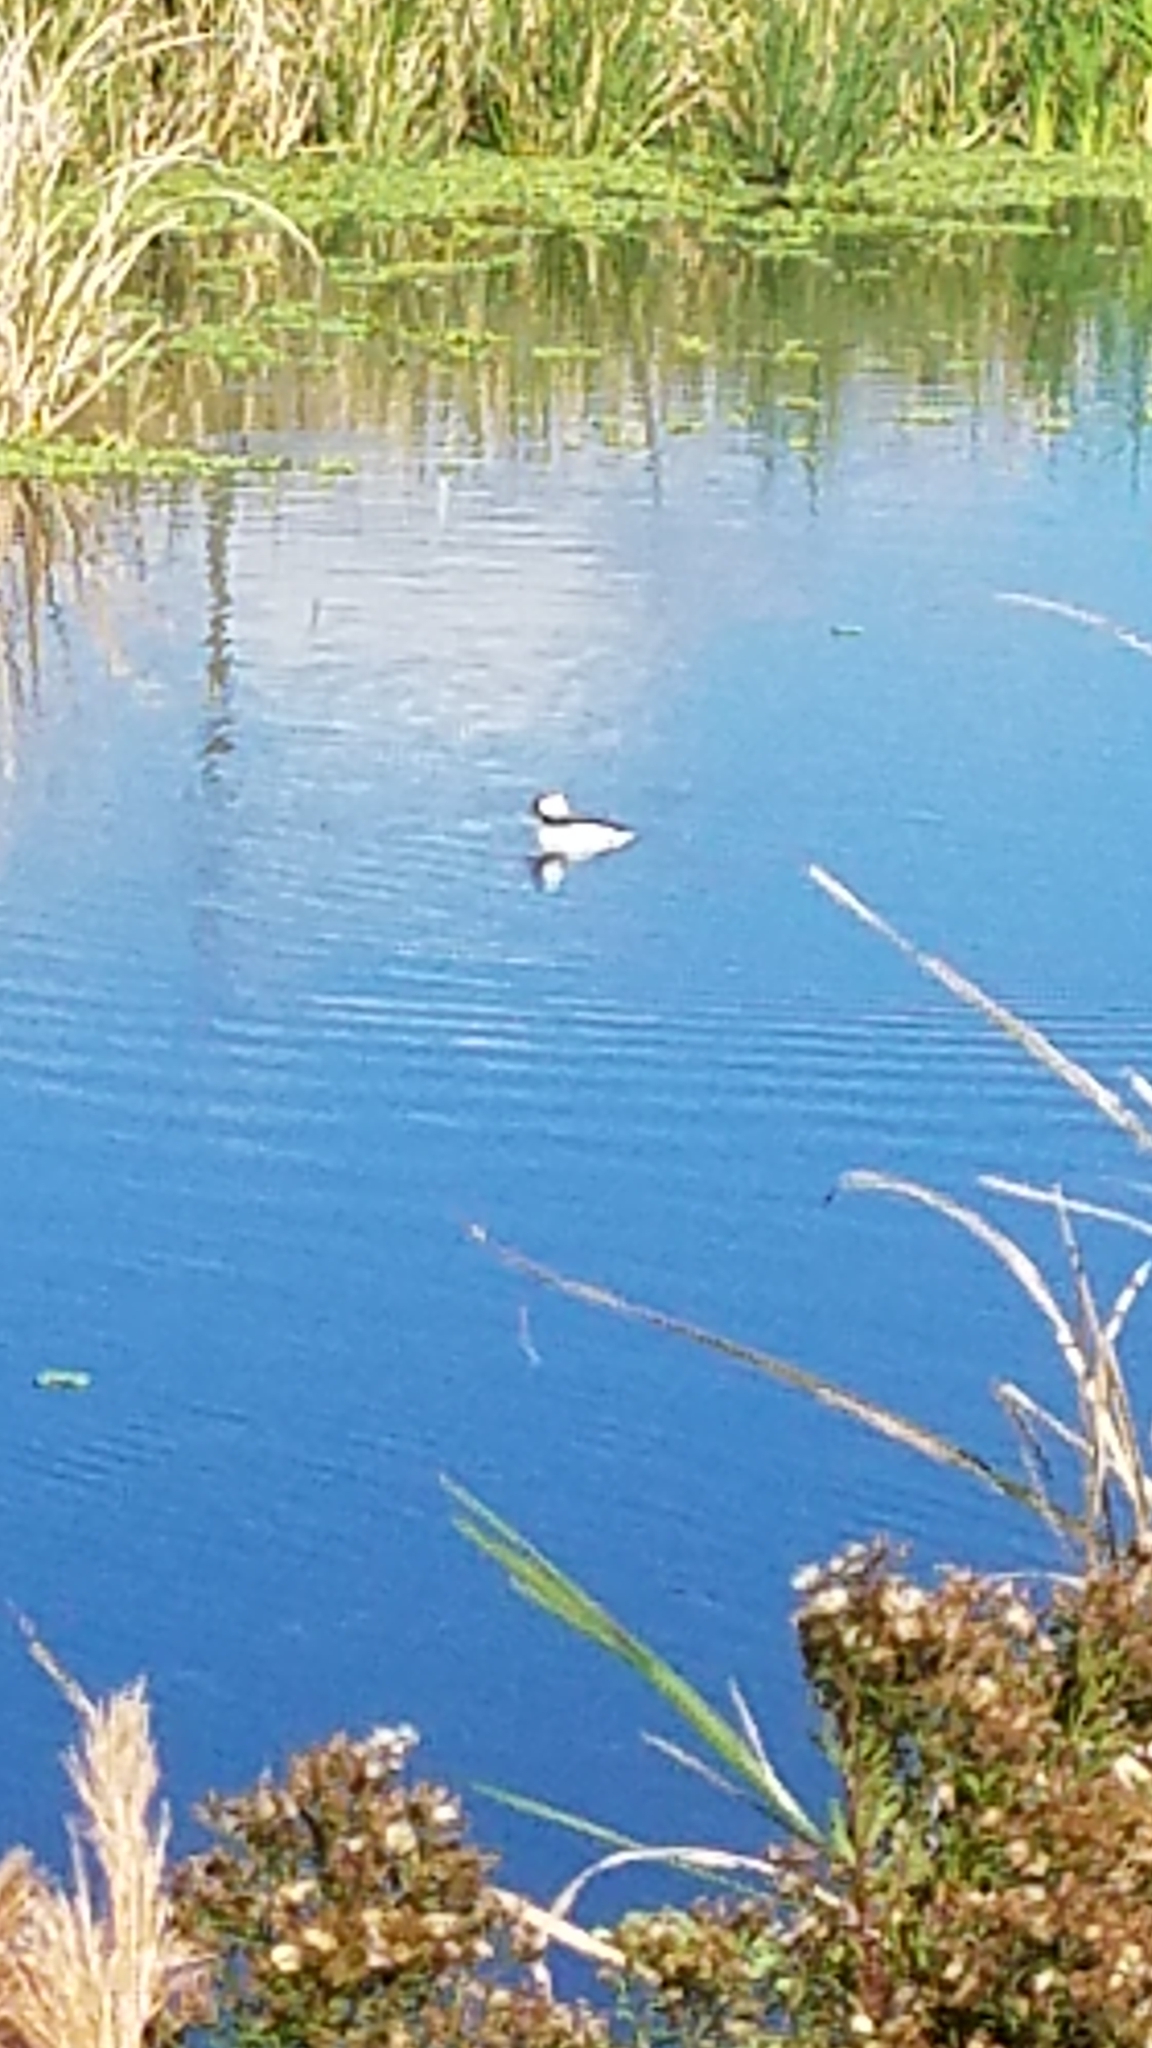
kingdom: Animalia
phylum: Chordata
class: Aves
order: Anseriformes
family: Anatidae
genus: Bucephala
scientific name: Bucephala albeola
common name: Bufflehead
